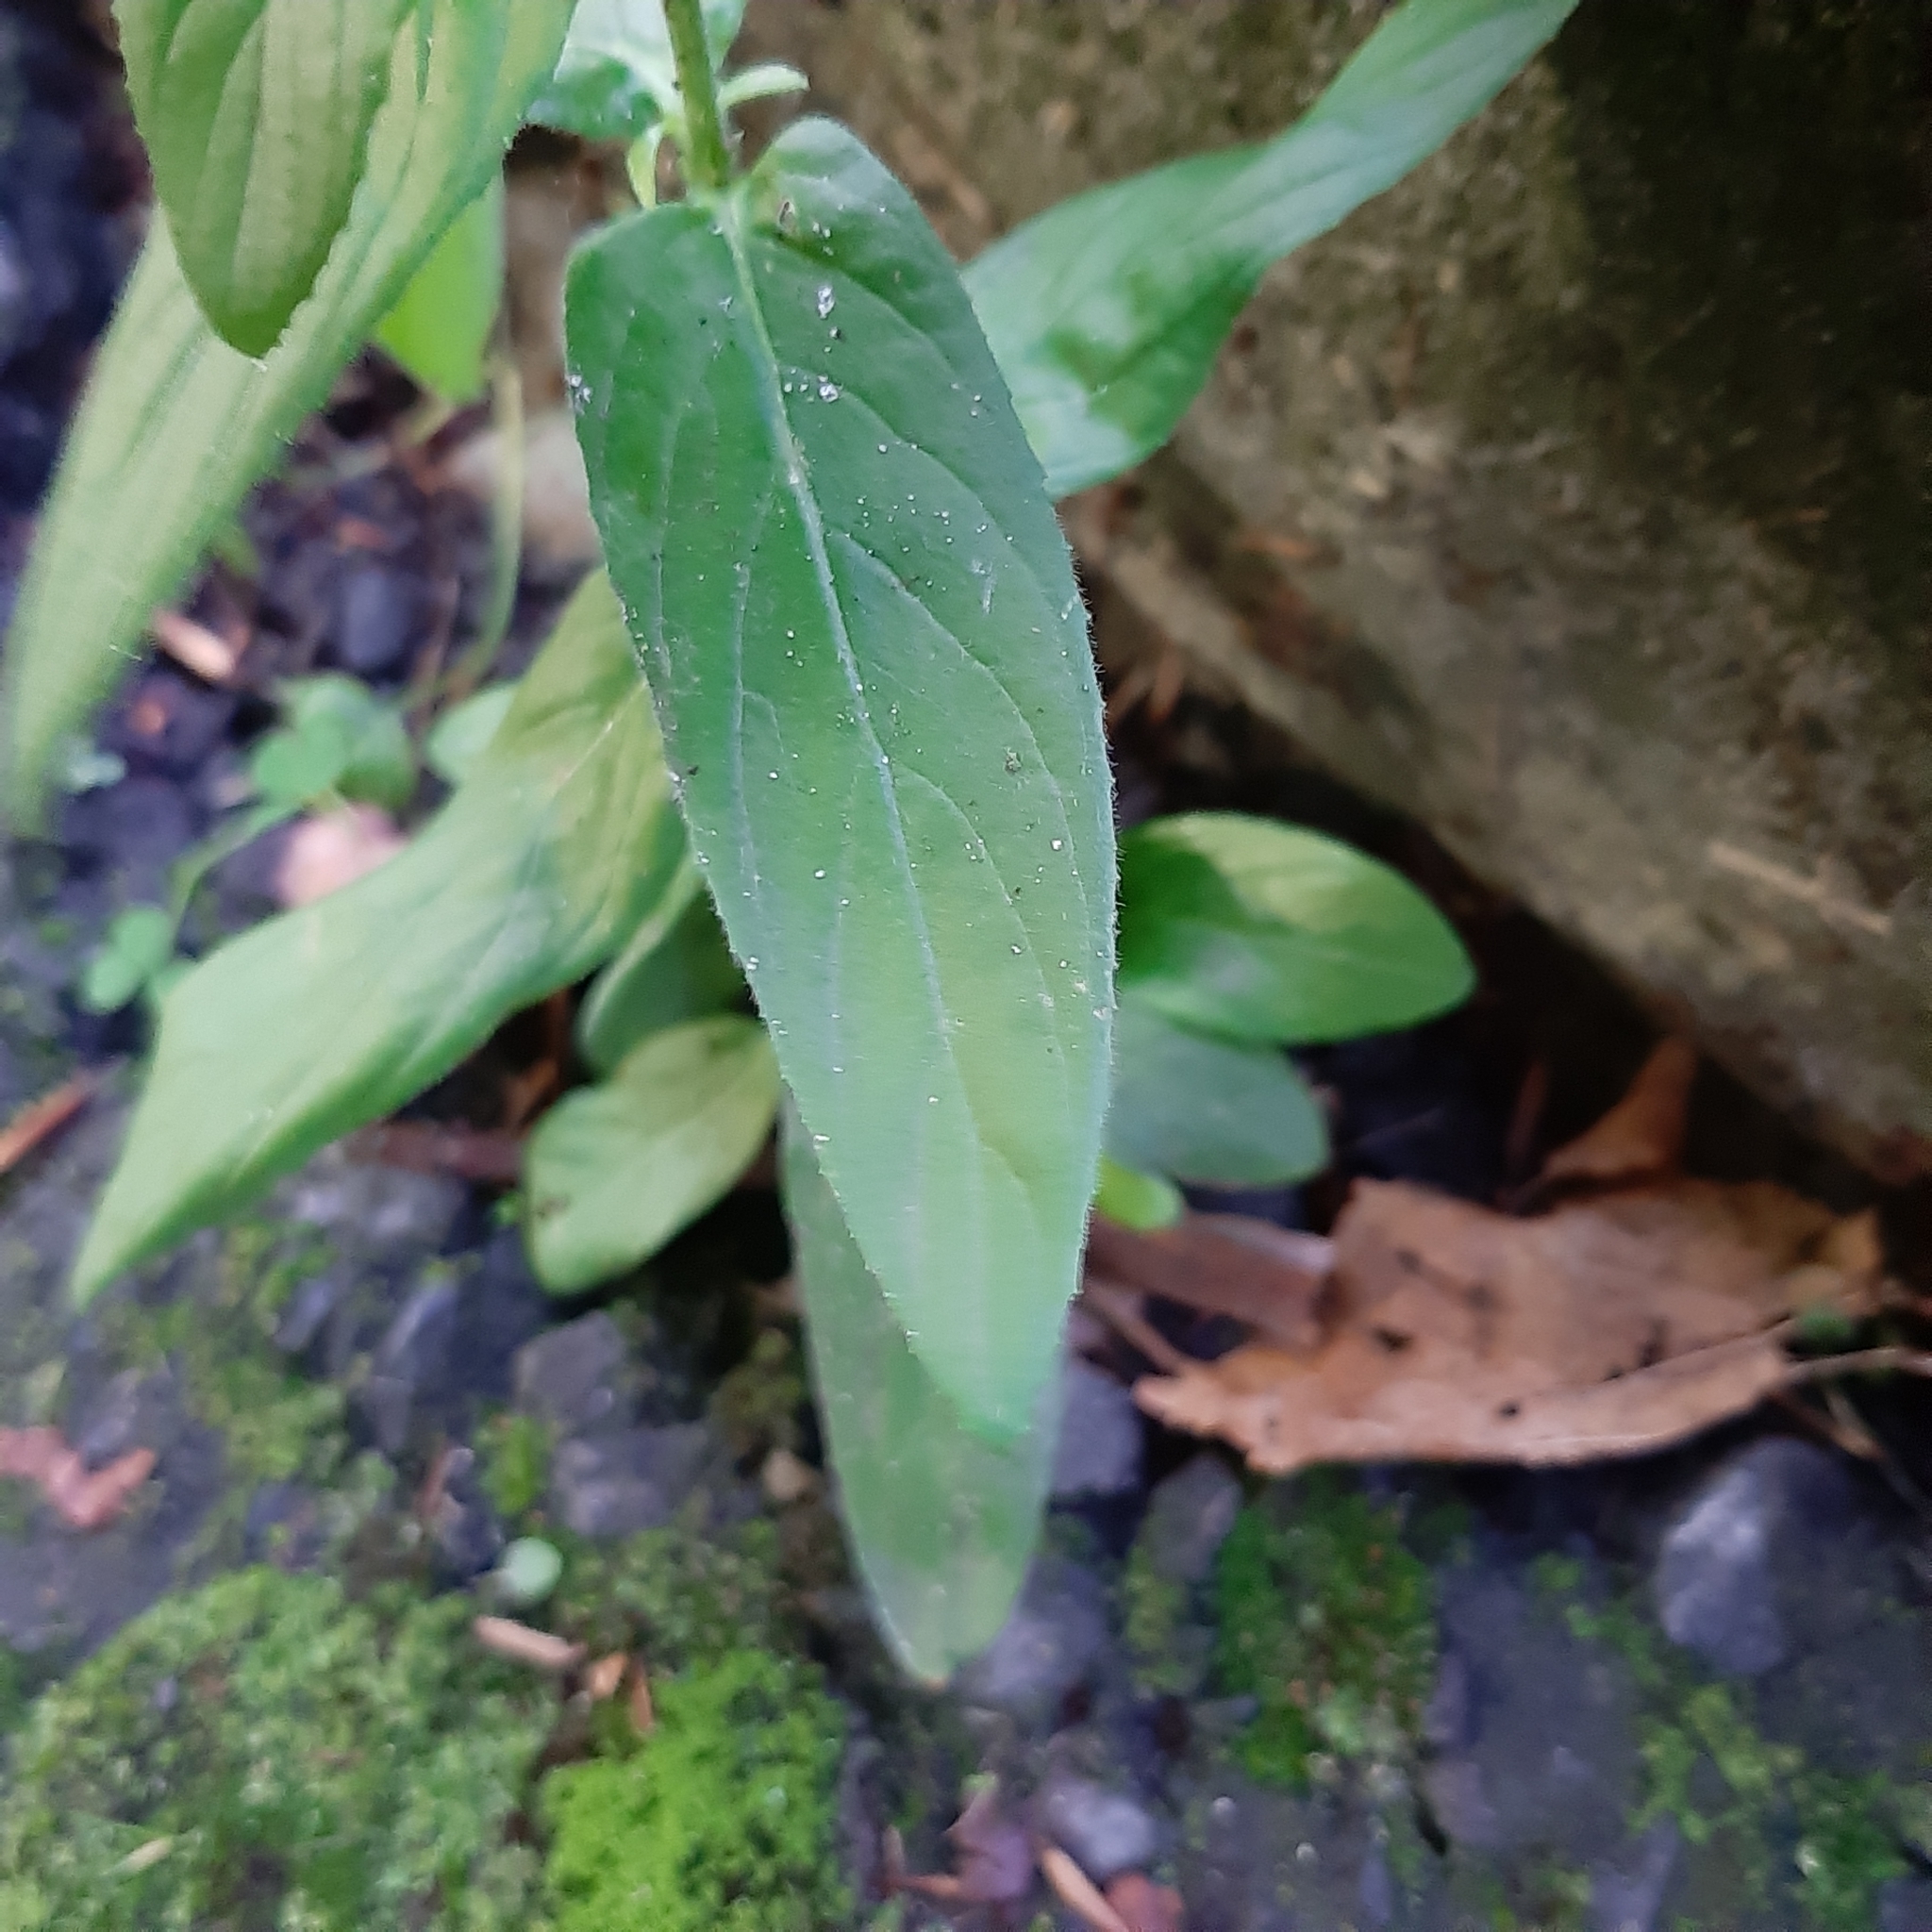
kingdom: Plantae
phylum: Tracheophyta
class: Magnoliopsida
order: Myrtales
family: Onagraceae
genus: Epilobium
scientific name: Epilobium ciliatum
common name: American willowherb
